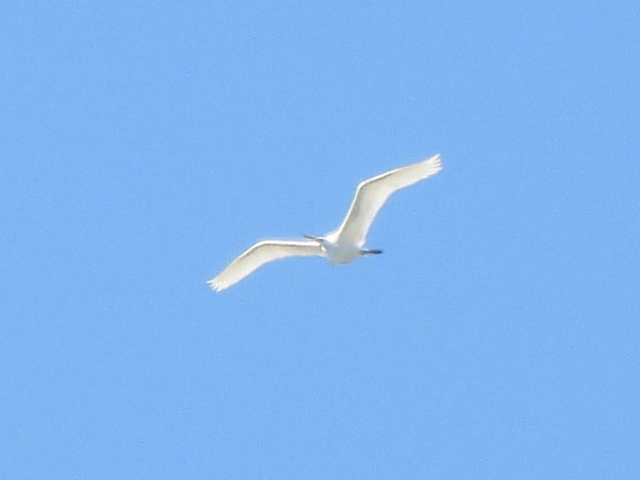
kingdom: Animalia
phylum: Chordata
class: Aves
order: Pelecaniformes
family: Ardeidae
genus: Ardea
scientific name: Ardea alba
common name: Great egret
